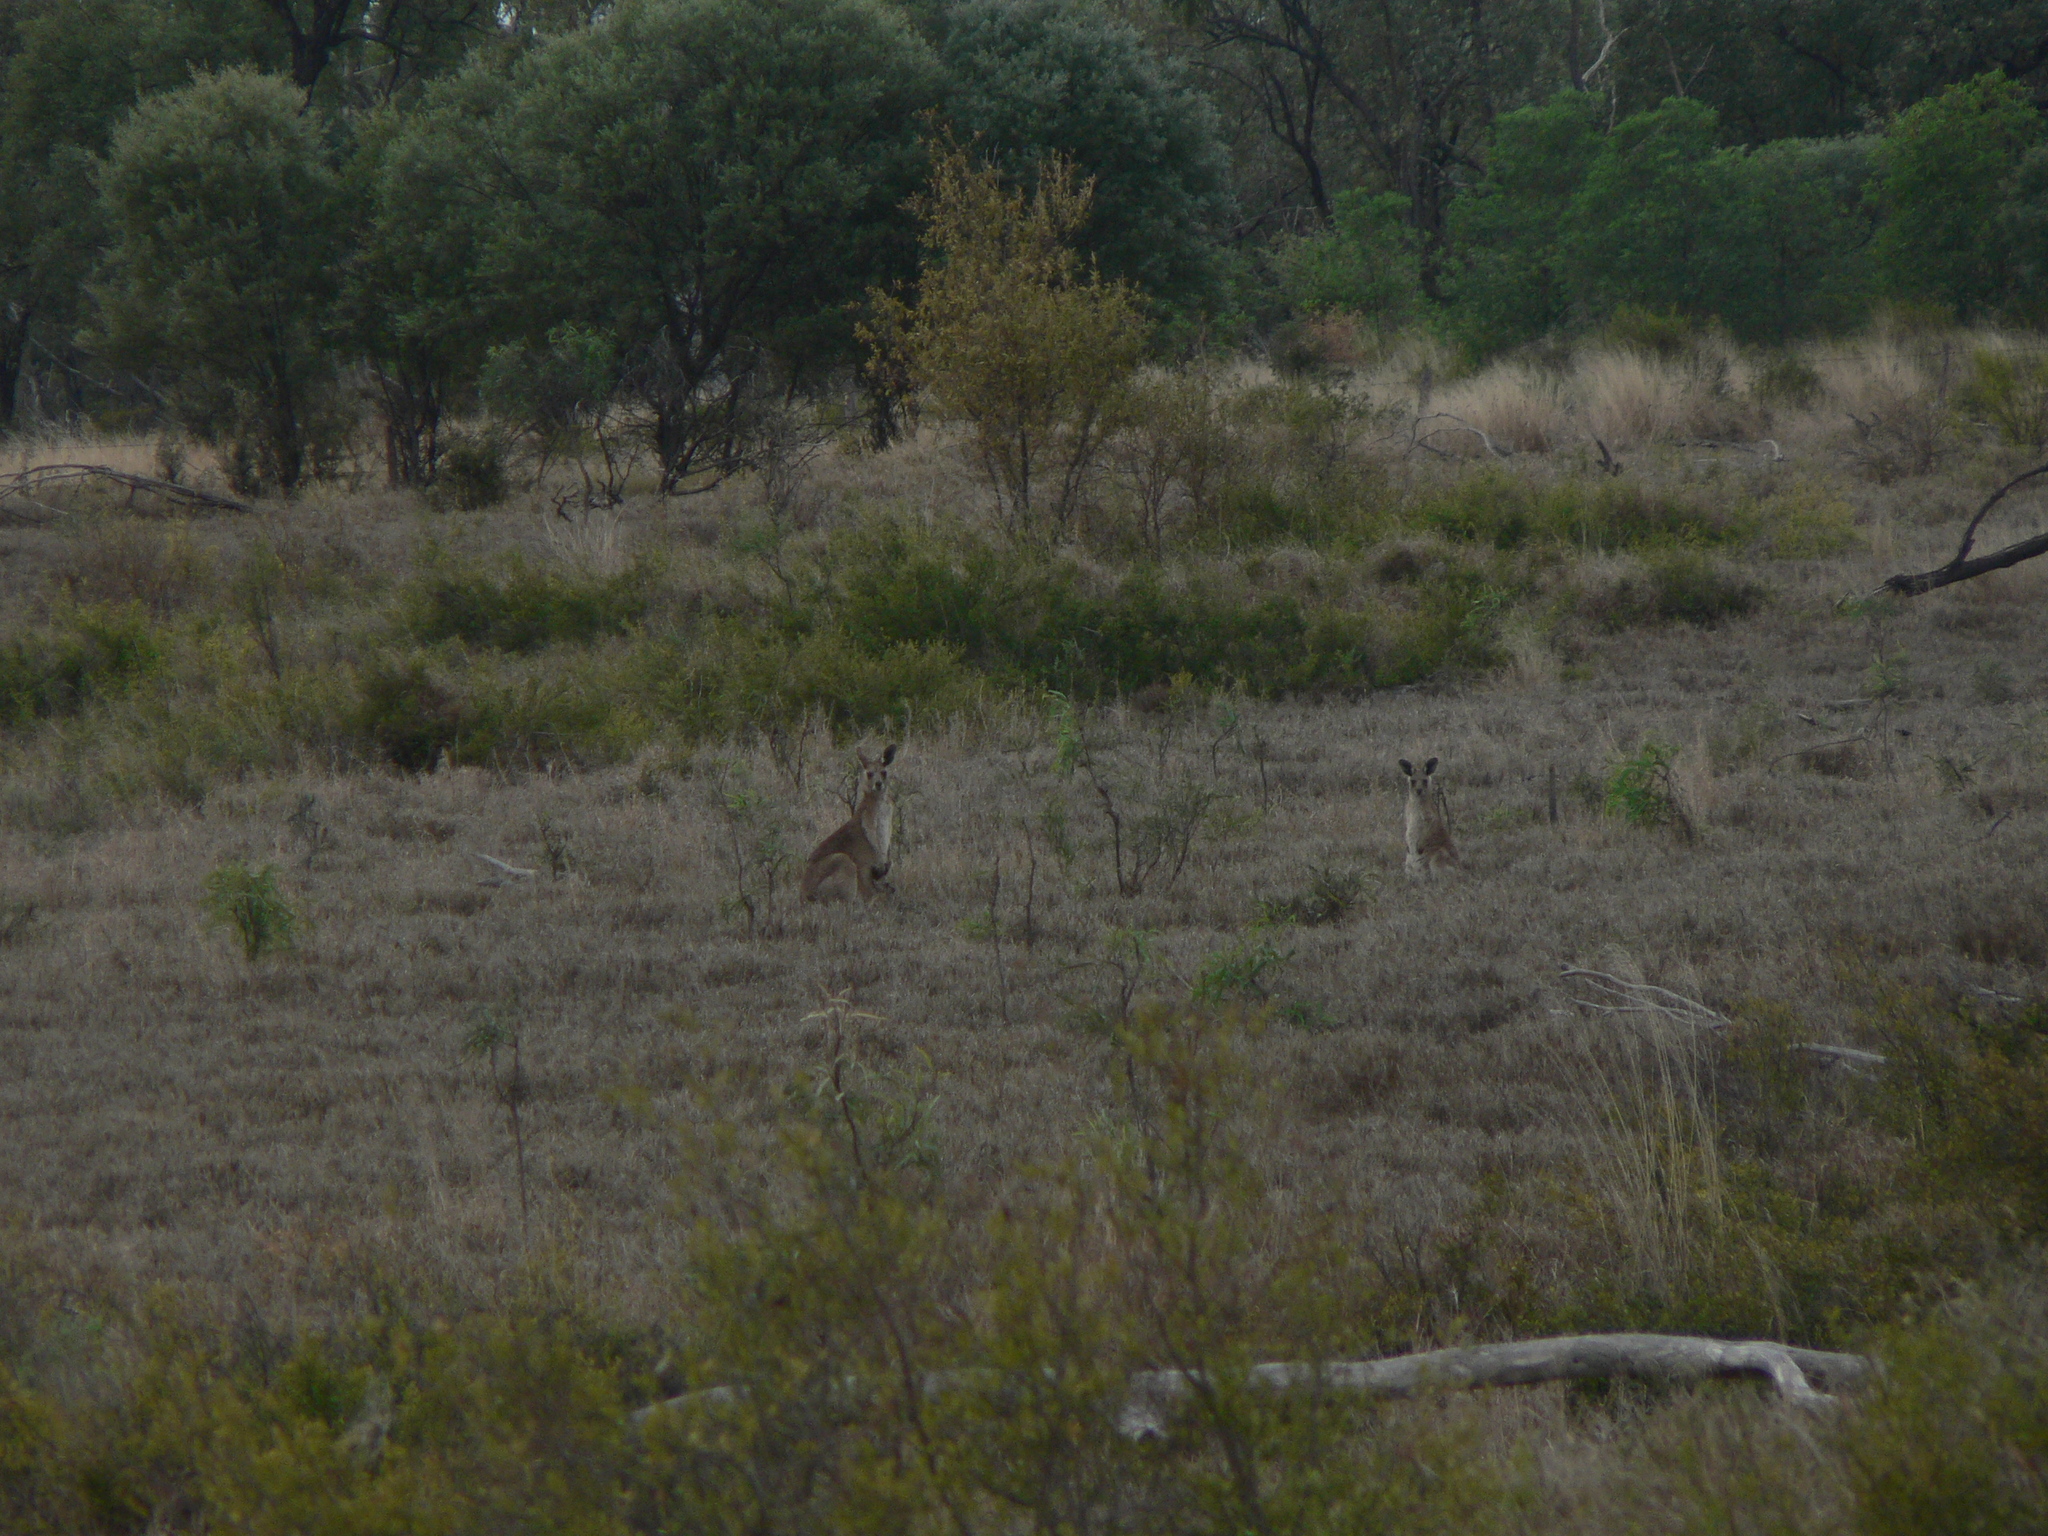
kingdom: Animalia
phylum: Chordata
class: Mammalia
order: Diprotodontia
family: Macropodidae
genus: Macropus
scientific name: Macropus giganteus
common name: Eastern grey kangaroo
